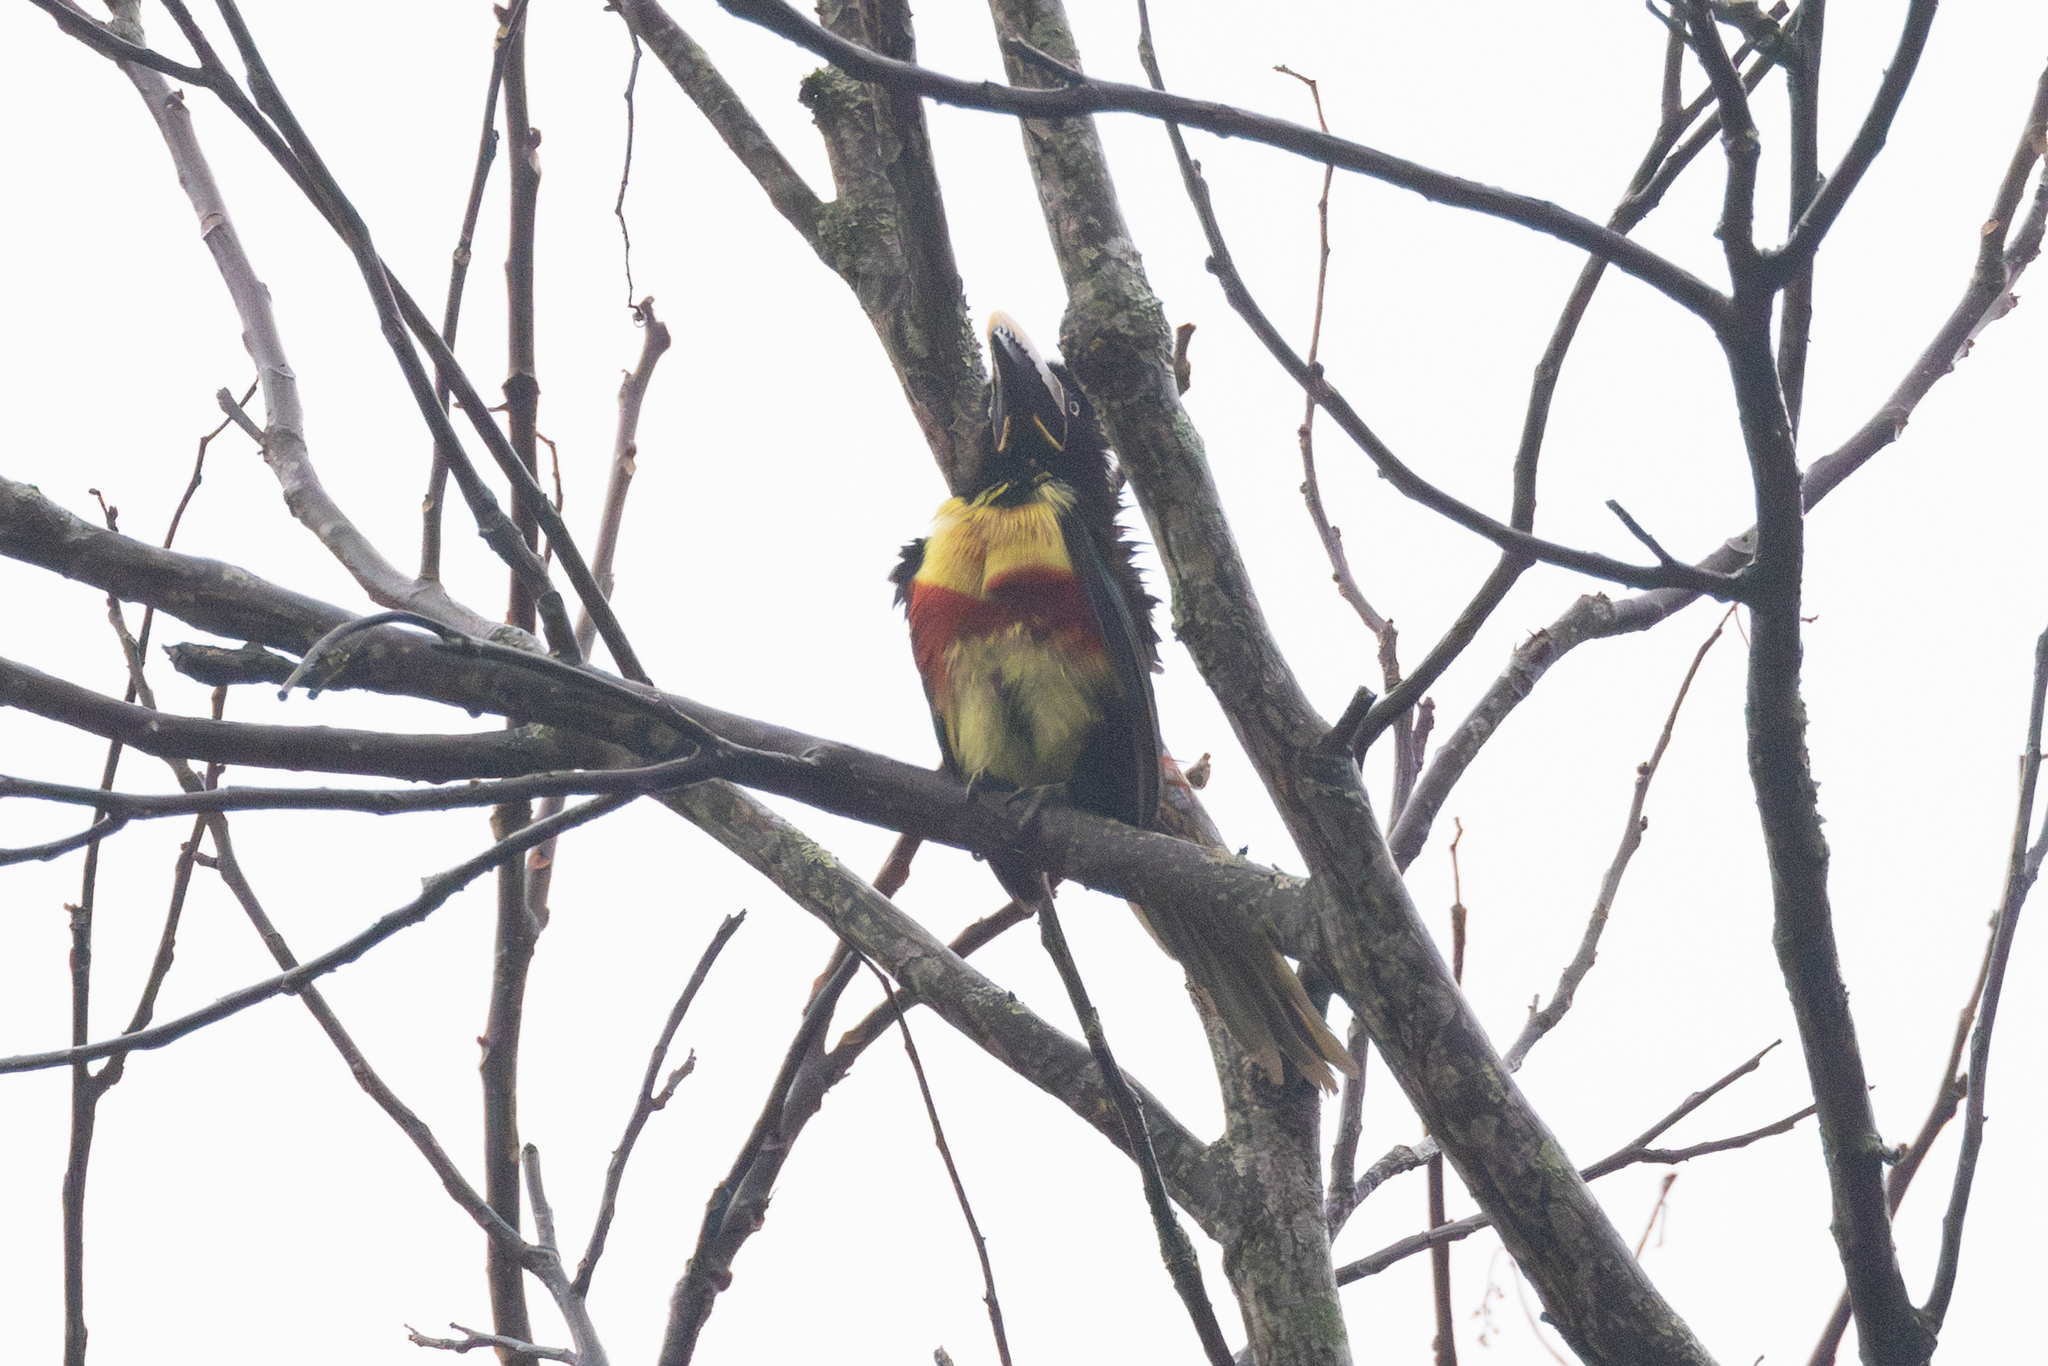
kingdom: Animalia
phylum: Chordata
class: Aves
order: Piciformes
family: Ramphastidae
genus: Pteroglossus
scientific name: Pteroglossus castanotis
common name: Chestnut-eared aracari
